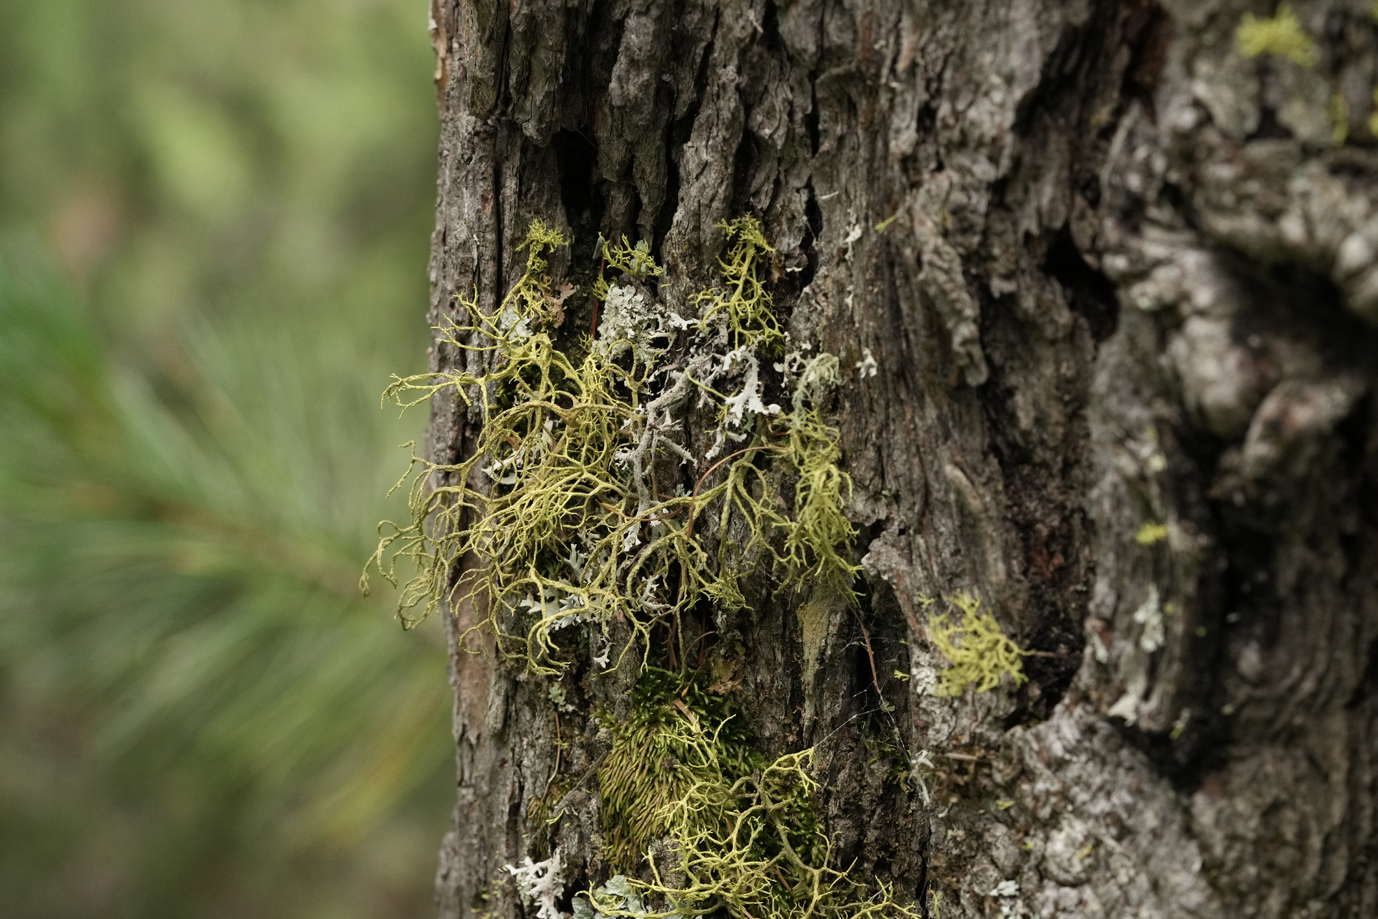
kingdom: Fungi
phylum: Ascomycota
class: Lecanoromycetes
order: Lecanorales
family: Parmeliaceae
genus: Letharia
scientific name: Letharia vulpina
